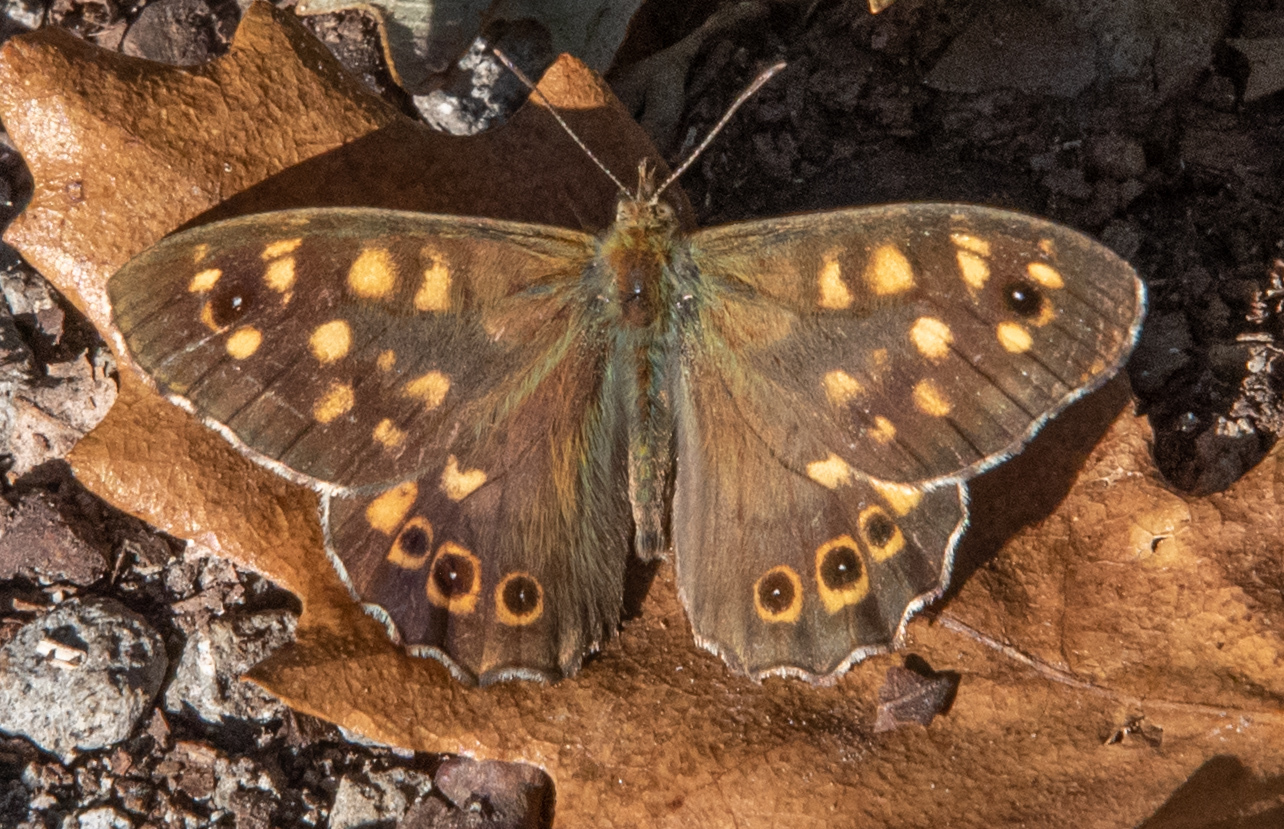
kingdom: Animalia
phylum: Arthropoda
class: Insecta
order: Lepidoptera
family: Nymphalidae
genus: Pararge
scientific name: Pararge aegeria
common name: Speckled wood
